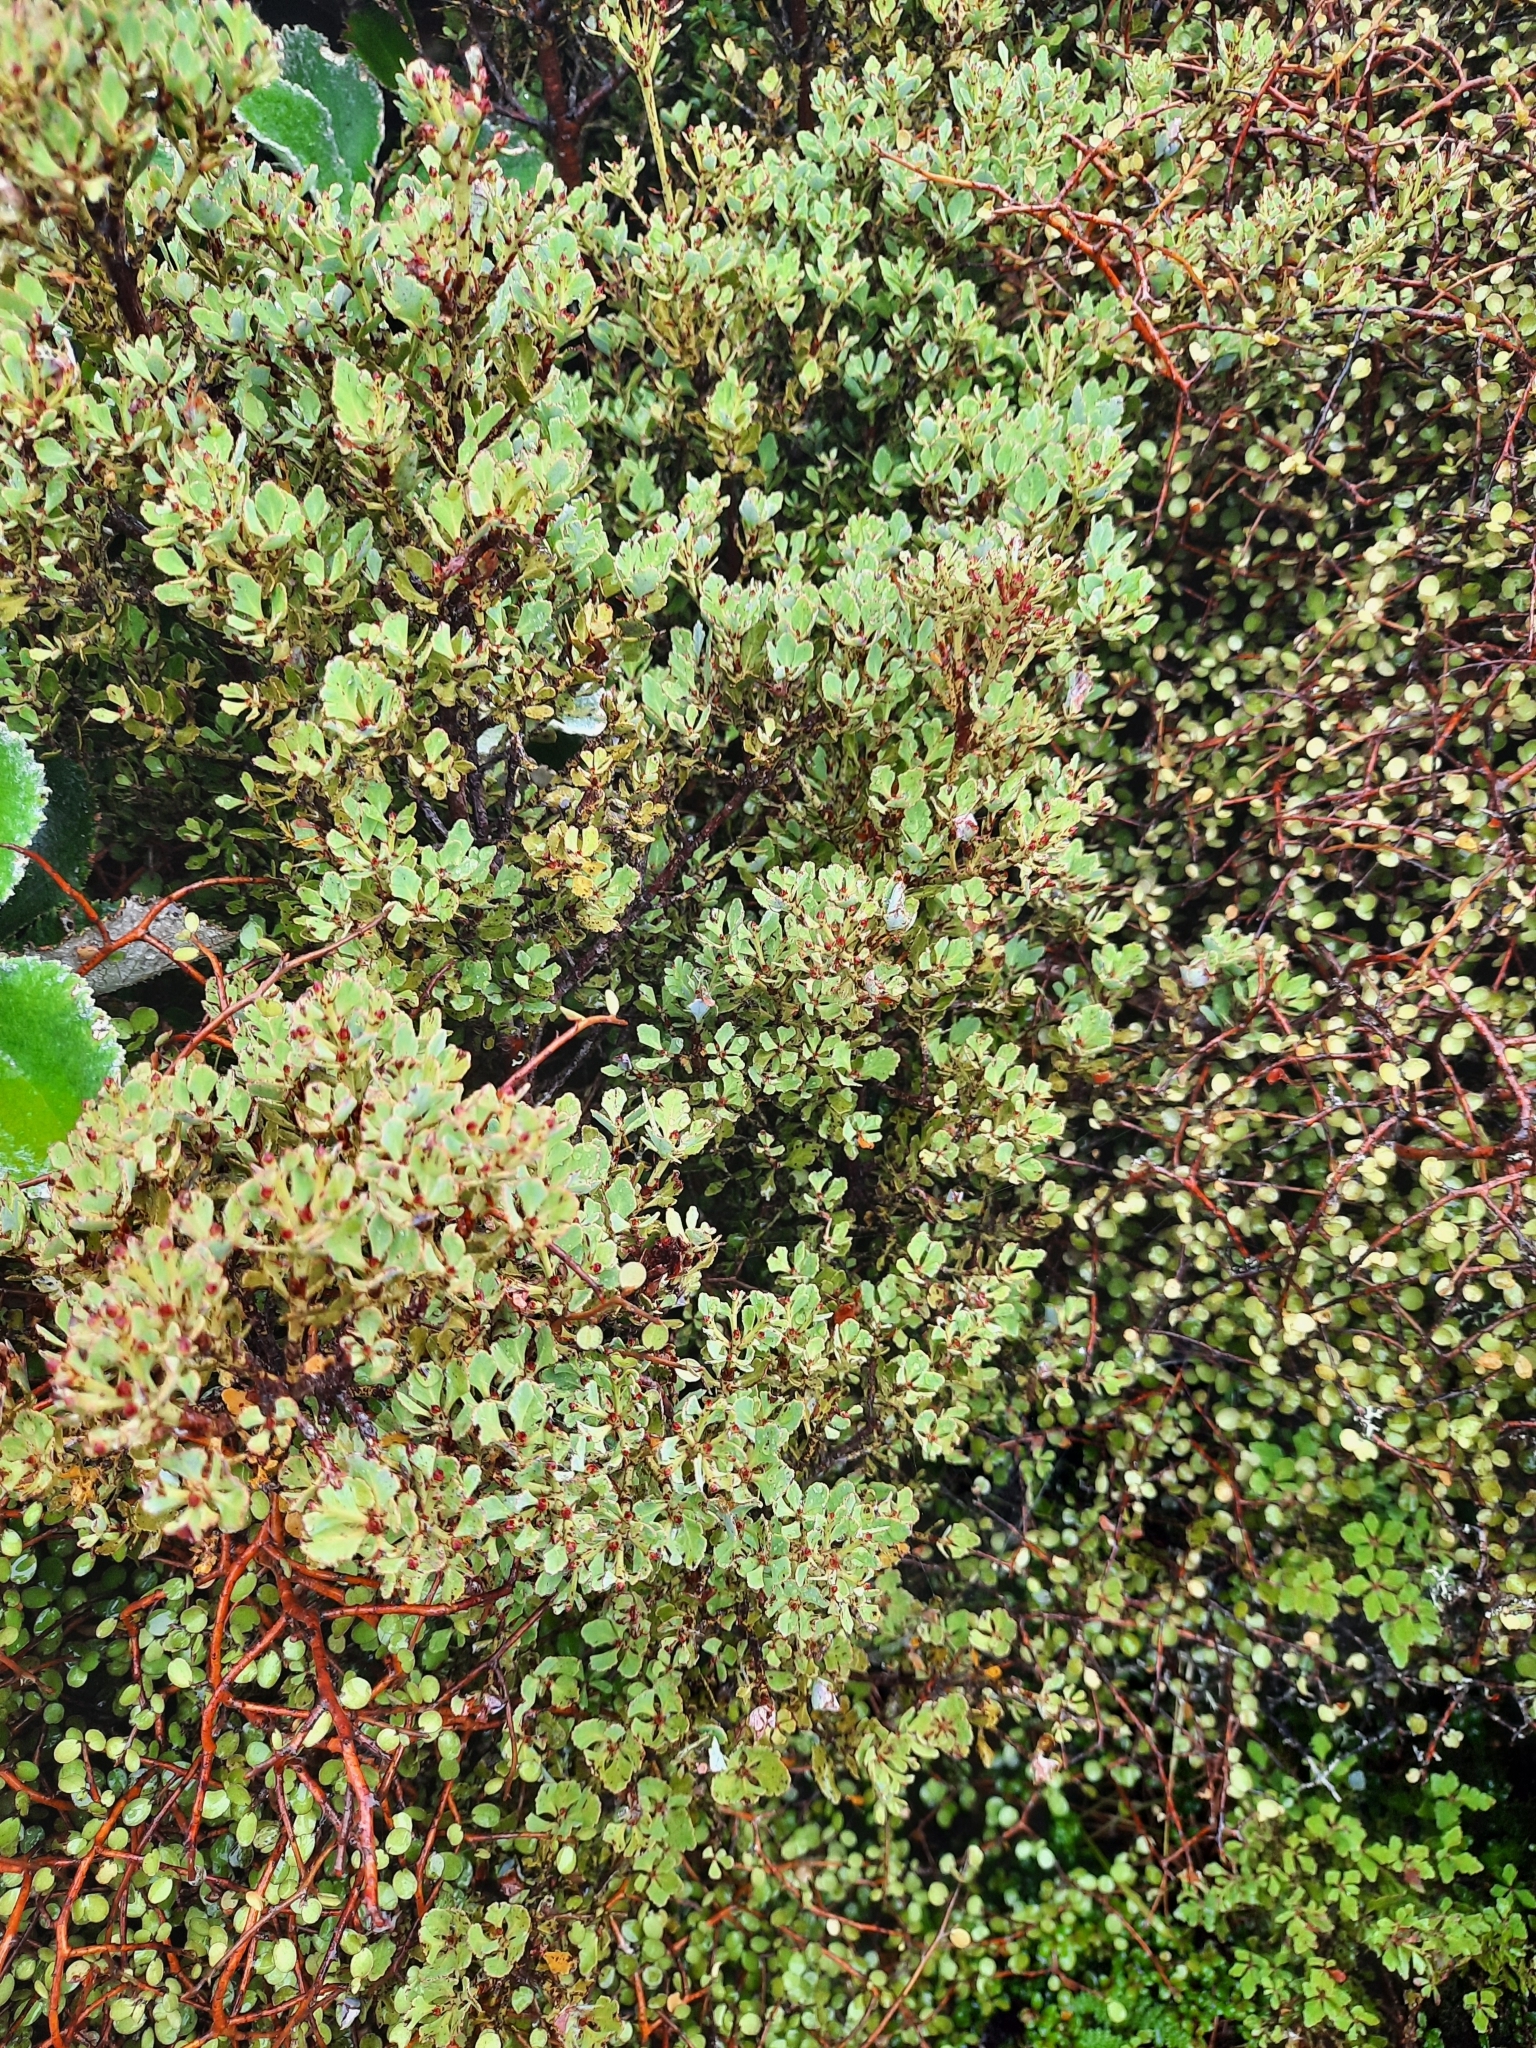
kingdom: Plantae
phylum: Tracheophyta
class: Pinopsida
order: Pinales
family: Phyllocladaceae
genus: Phyllocladus
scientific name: Phyllocladus trichomanoides
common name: Celery pine
